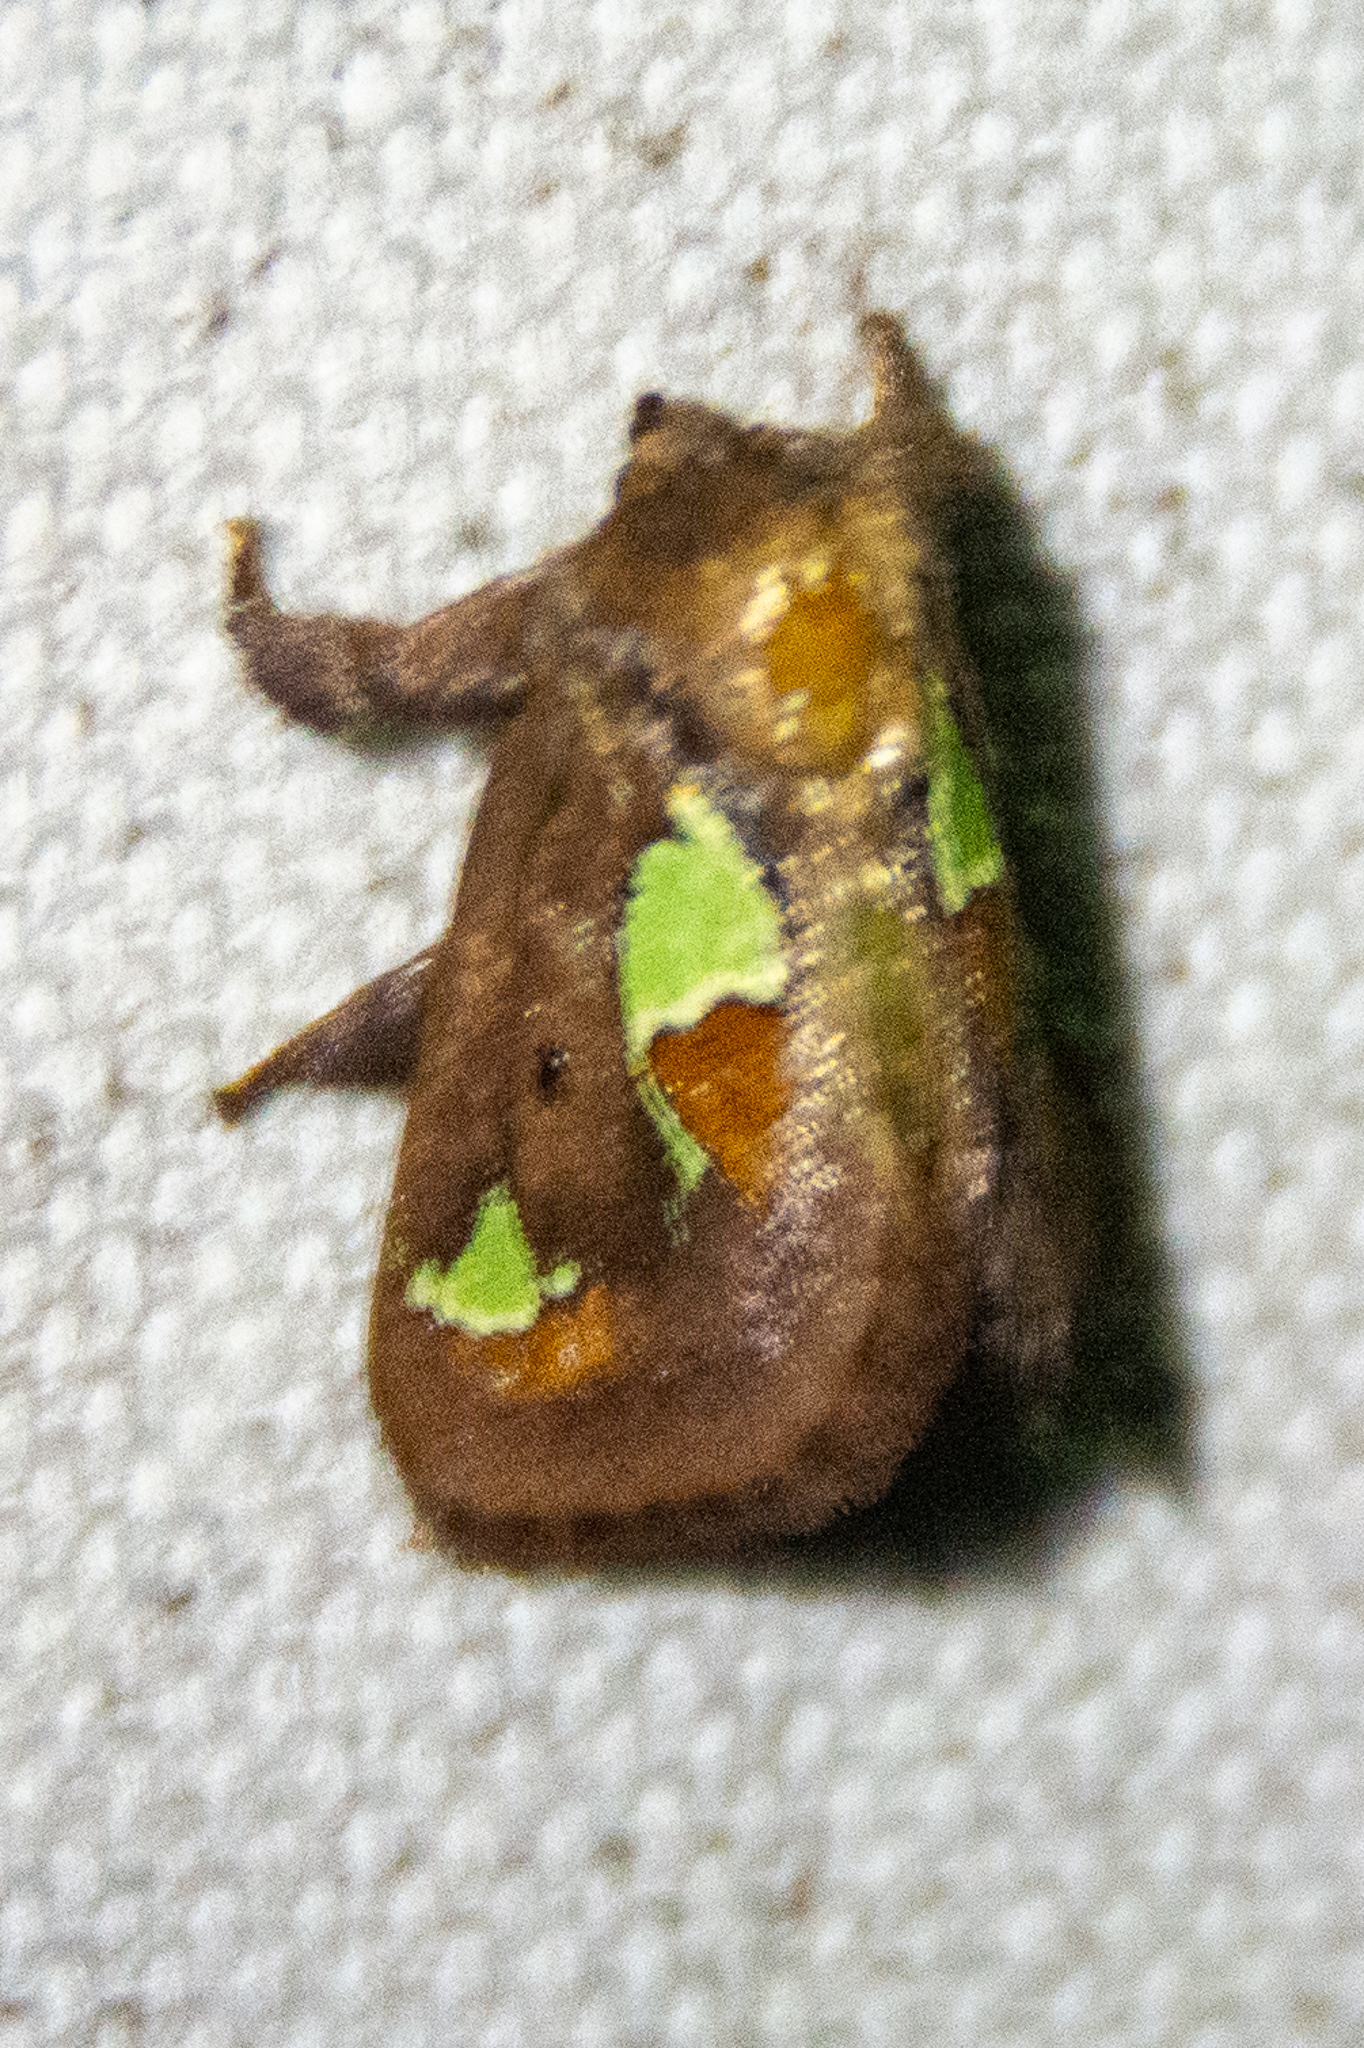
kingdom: Animalia
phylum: Arthropoda
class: Insecta
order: Lepidoptera
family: Limacodidae
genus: Euclea
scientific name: Euclea delphinii
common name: Spiny oak-slug moth
